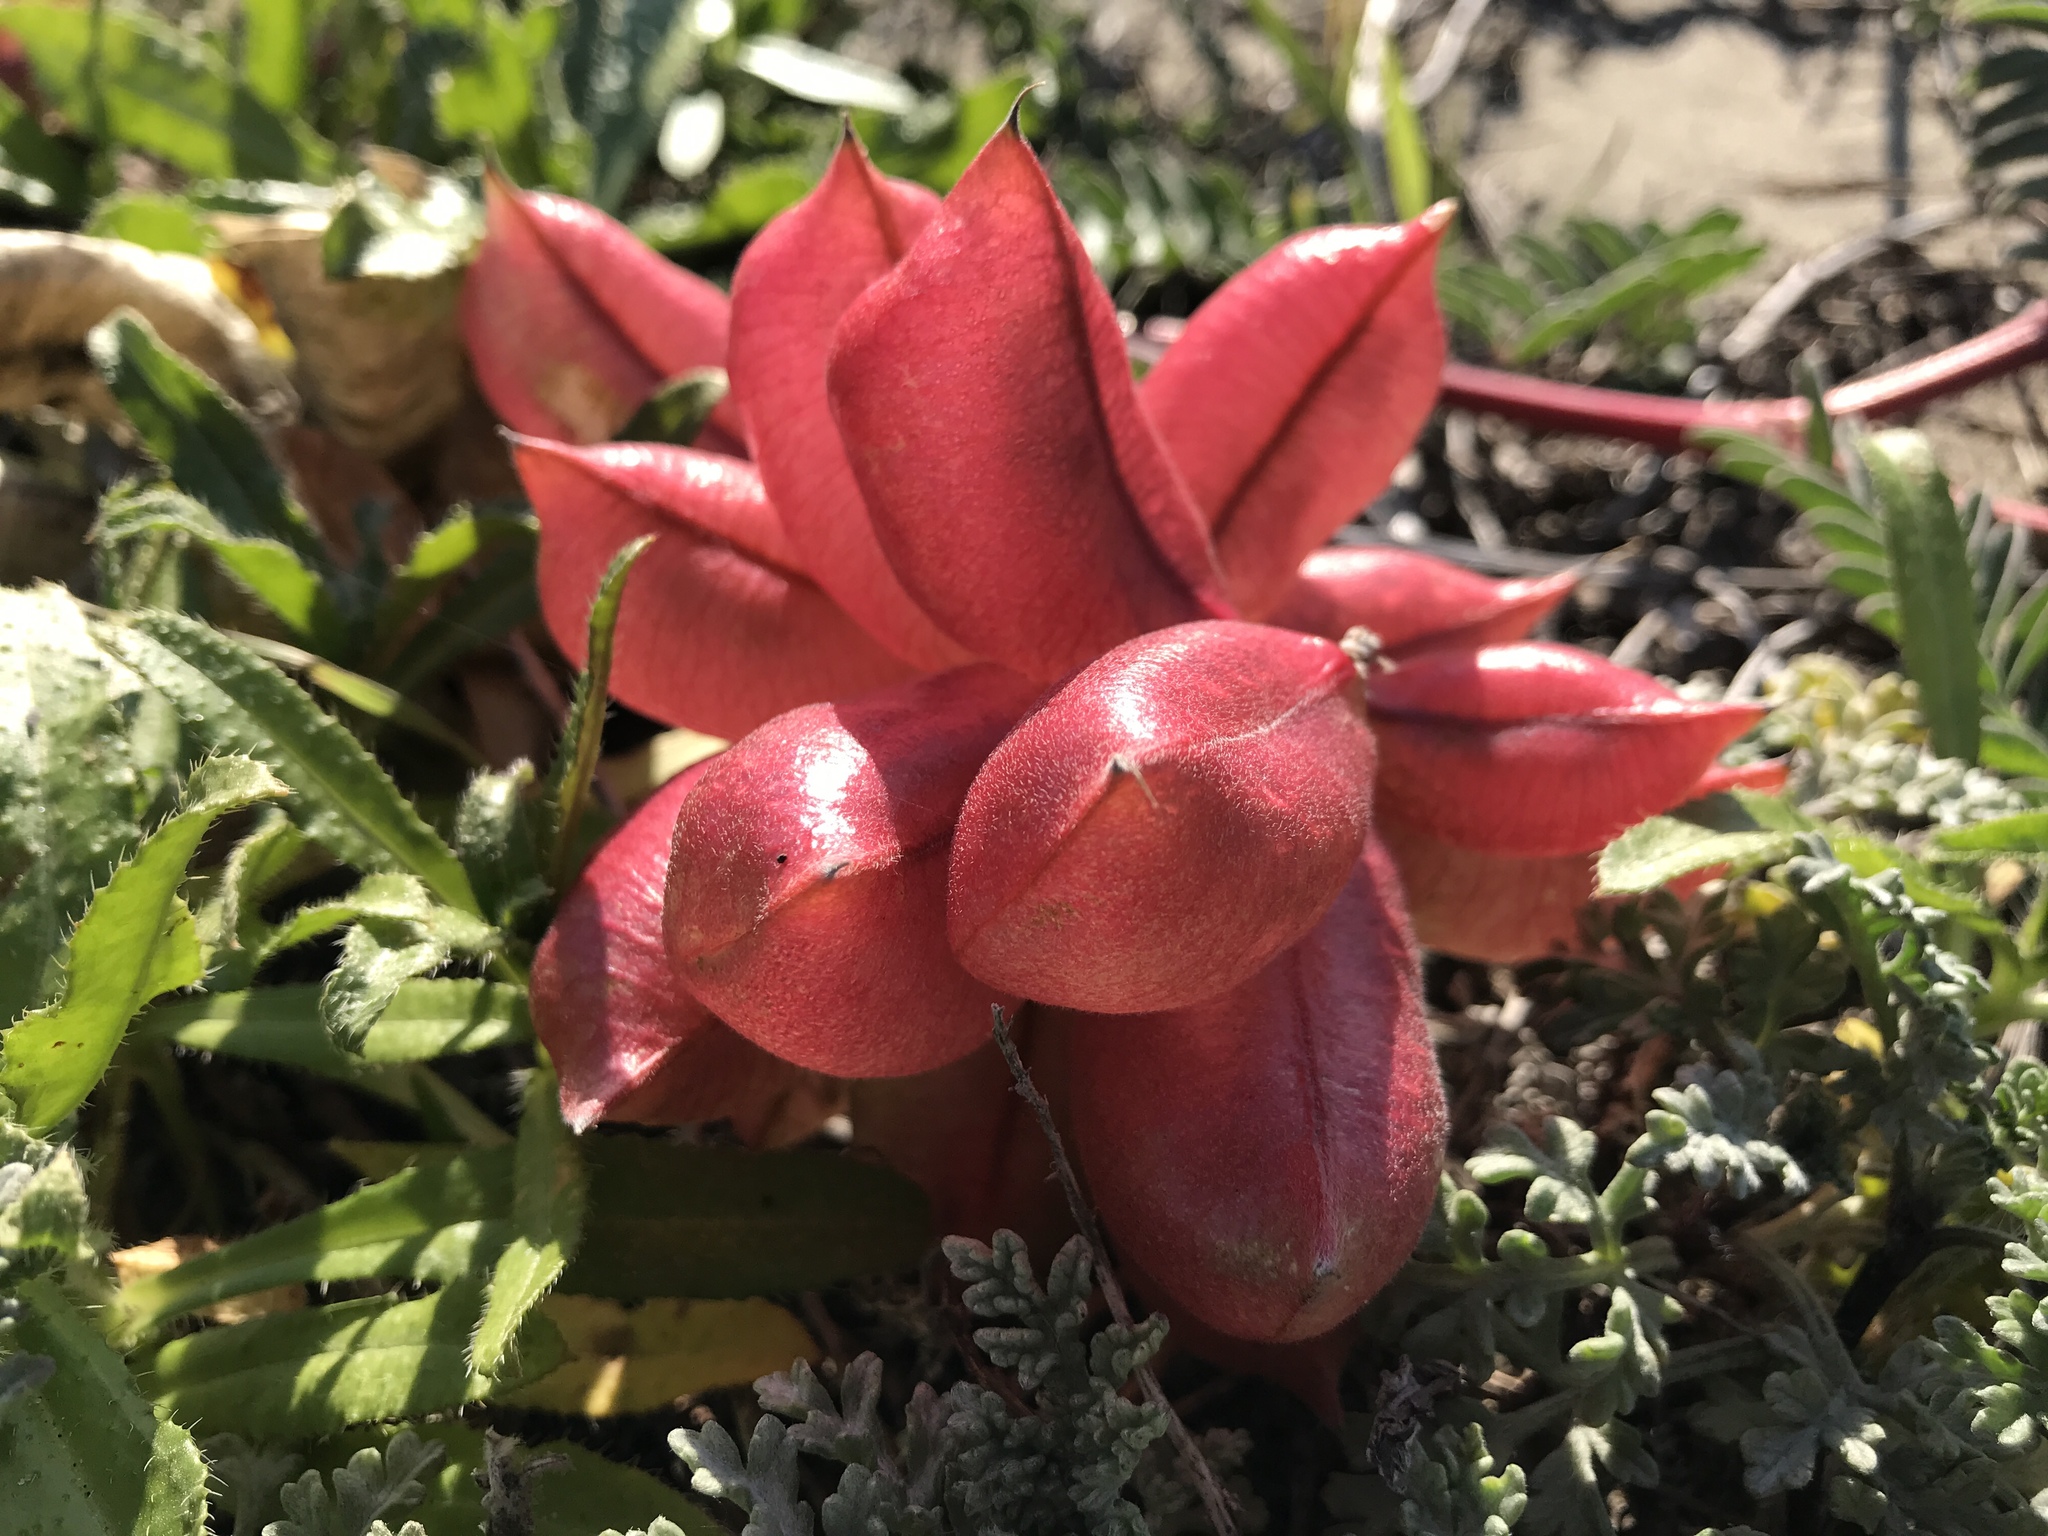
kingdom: Plantae
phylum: Tracheophyta
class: Magnoliopsida
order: Fabales
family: Fabaceae
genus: Astragalus
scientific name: Astragalus nuttallii
